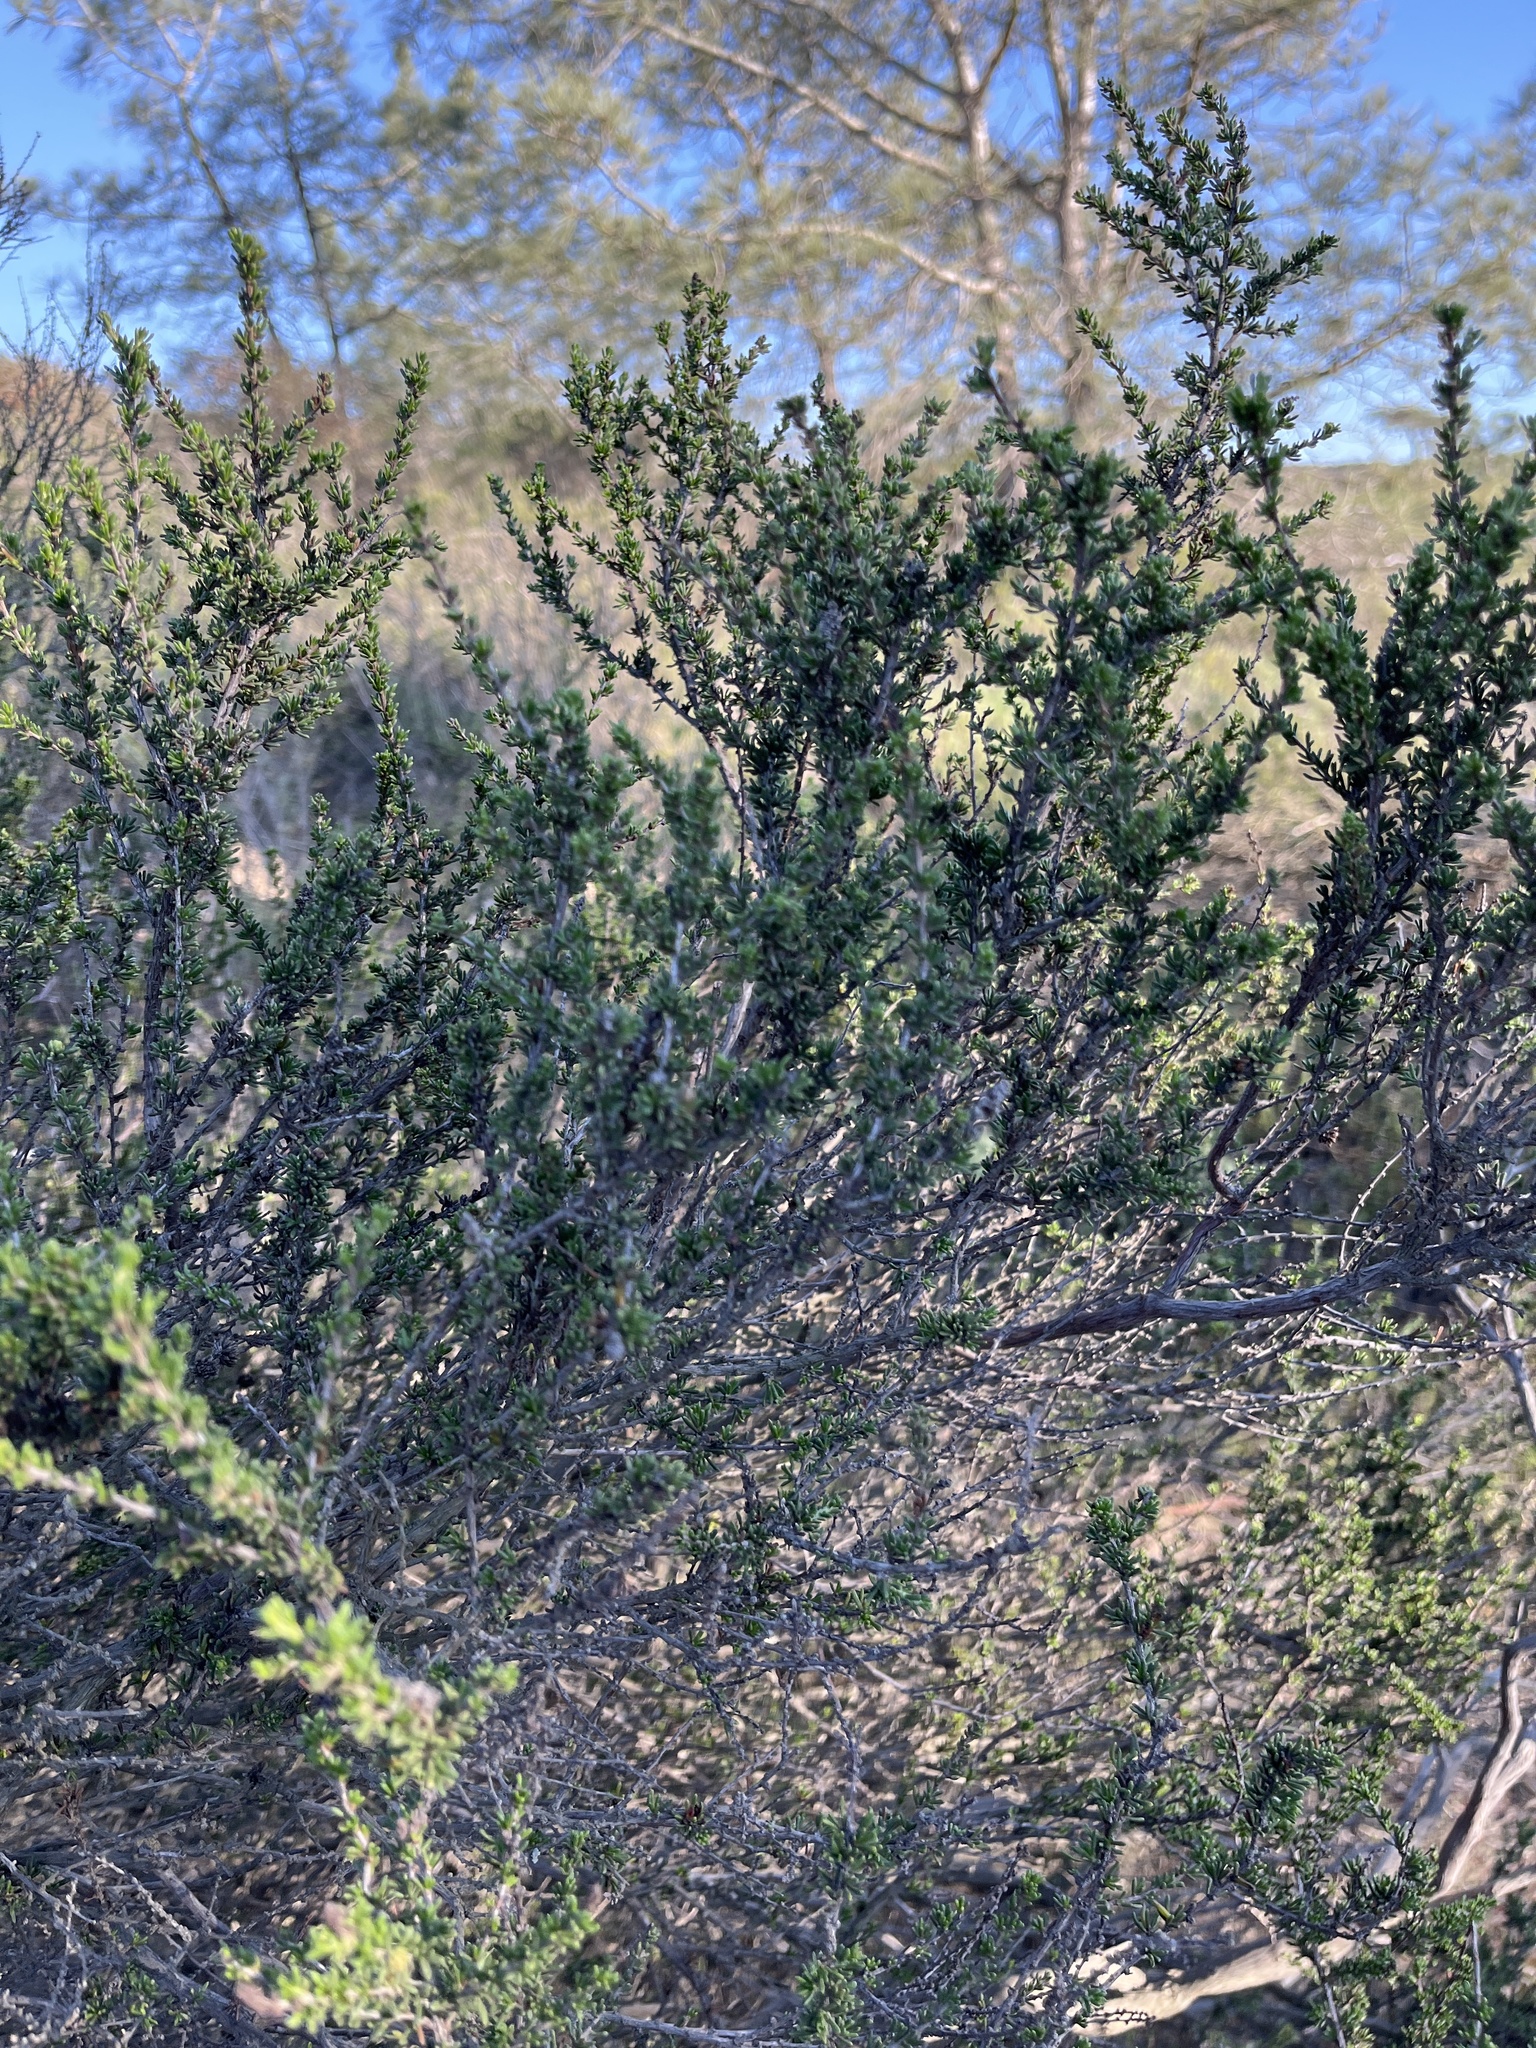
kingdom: Plantae
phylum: Tracheophyta
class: Magnoliopsida
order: Rosales
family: Rosaceae
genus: Adenostoma
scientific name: Adenostoma fasciculatum
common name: Chamise
